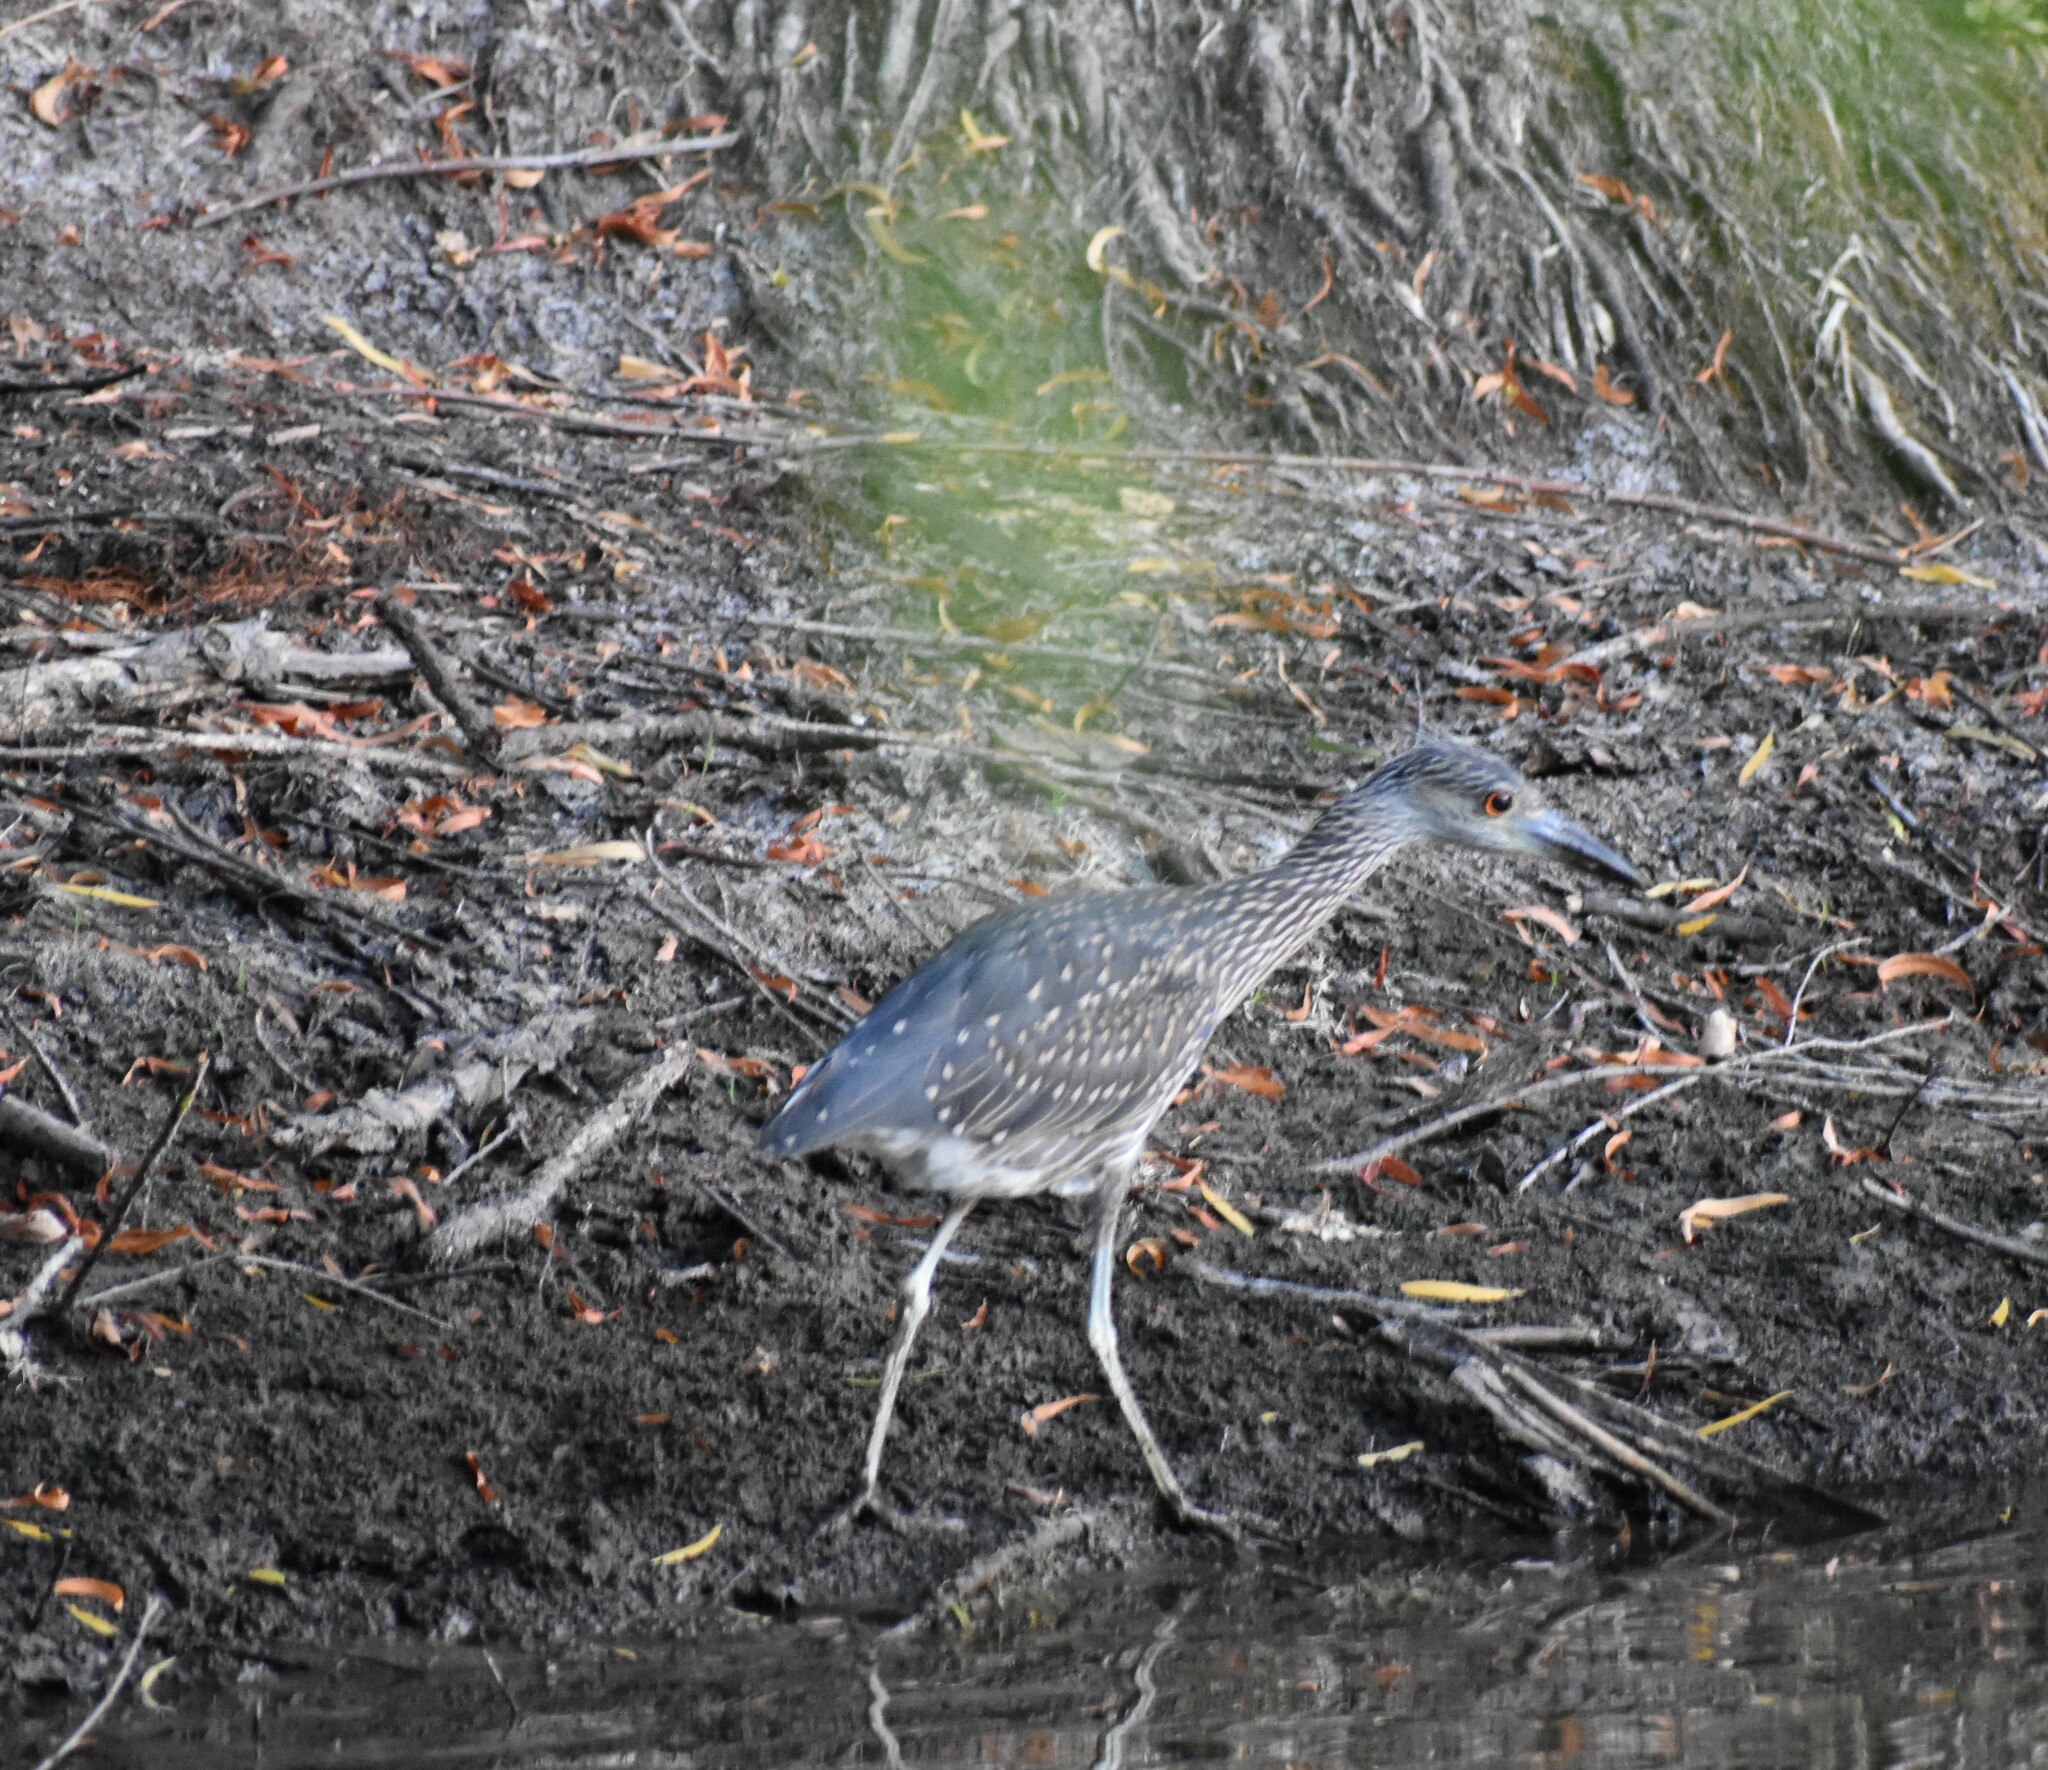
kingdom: Animalia
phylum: Chordata
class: Aves
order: Pelecaniformes
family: Ardeidae
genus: Nyctanassa
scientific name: Nyctanassa violacea
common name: Yellow-crowned night heron
